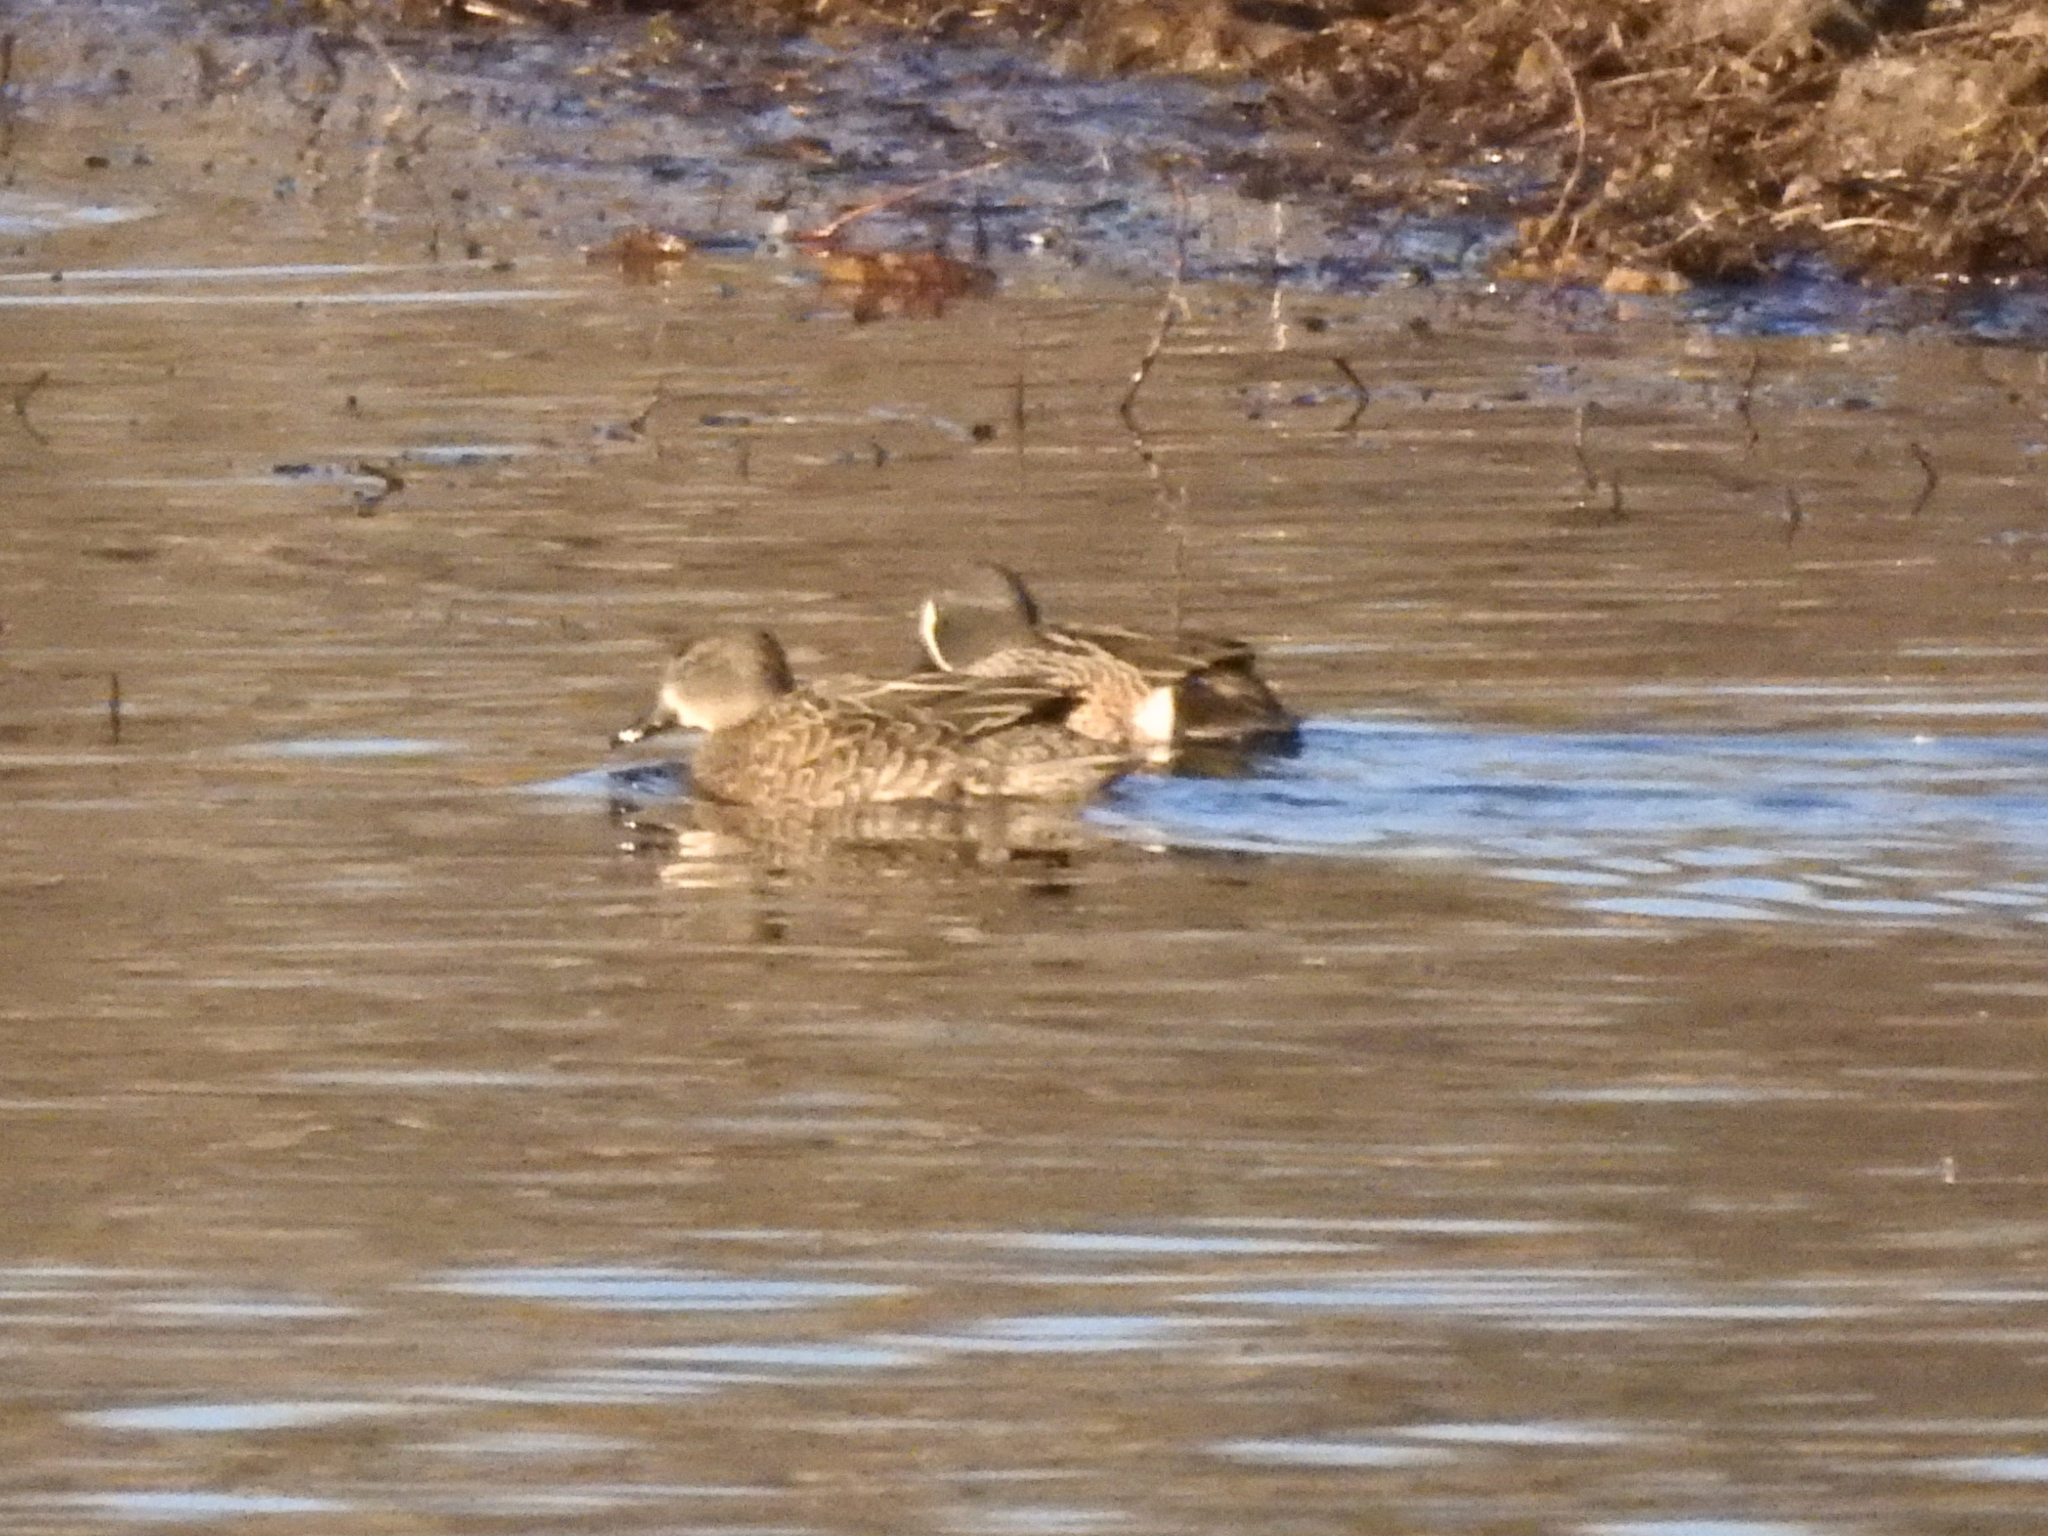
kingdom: Animalia
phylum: Chordata
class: Aves
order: Anseriformes
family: Anatidae
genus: Spatula
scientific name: Spatula discors
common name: Blue-winged teal
